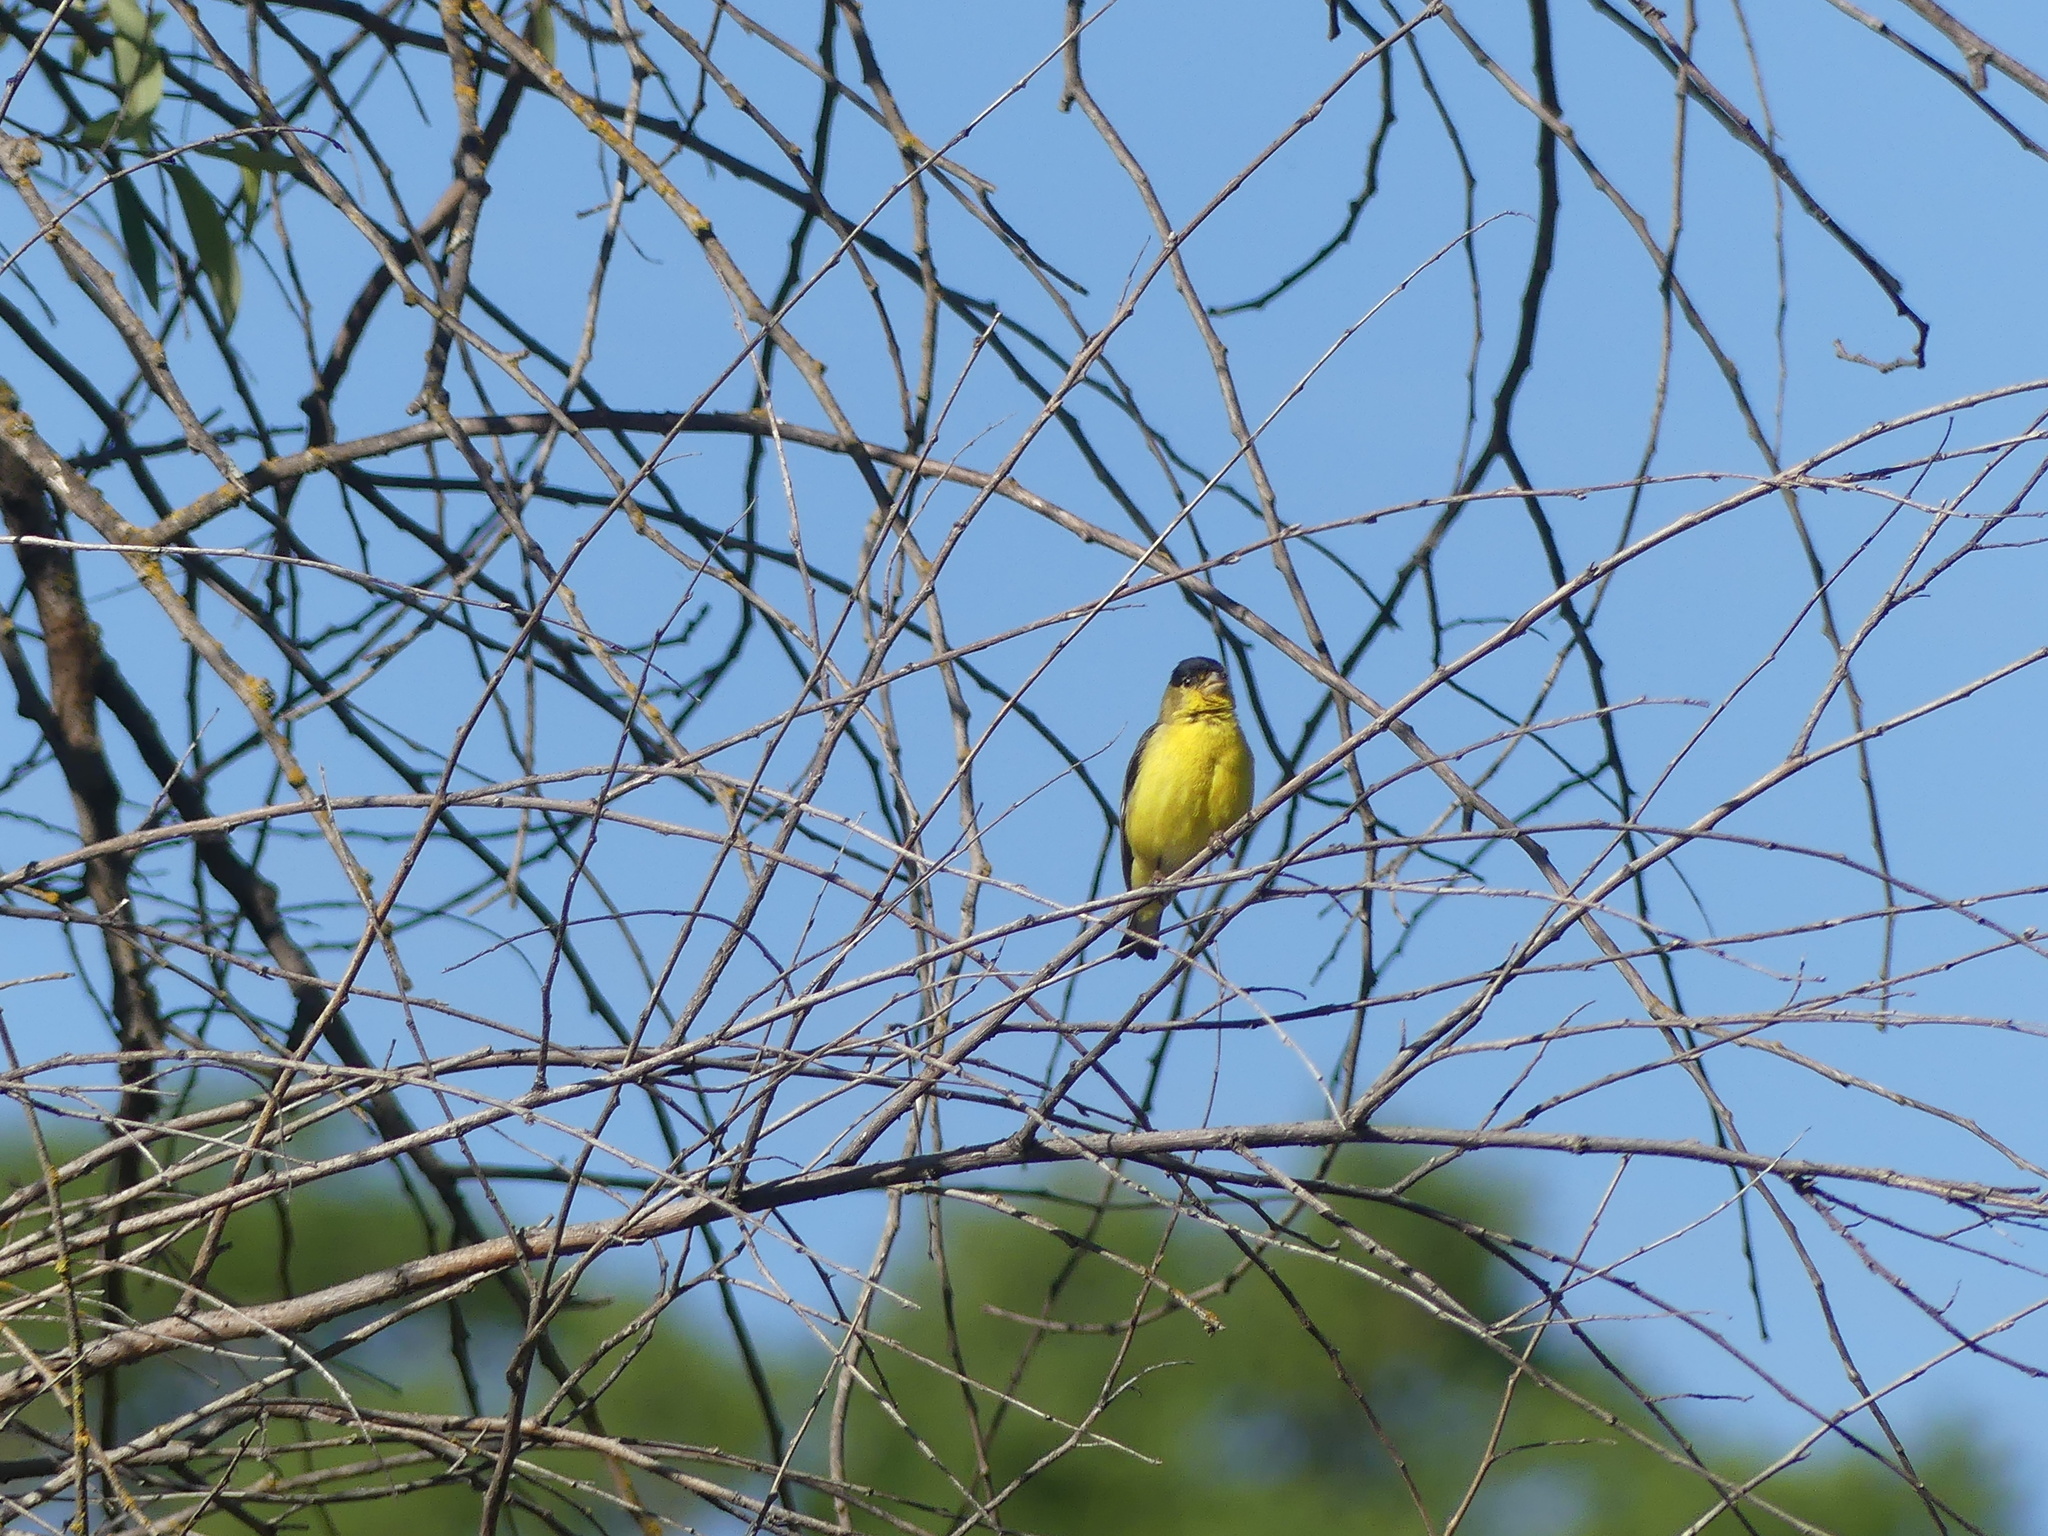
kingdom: Animalia
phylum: Chordata
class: Aves
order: Passeriformes
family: Fringillidae
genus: Spinus
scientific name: Spinus psaltria
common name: Lesser goldfinch
